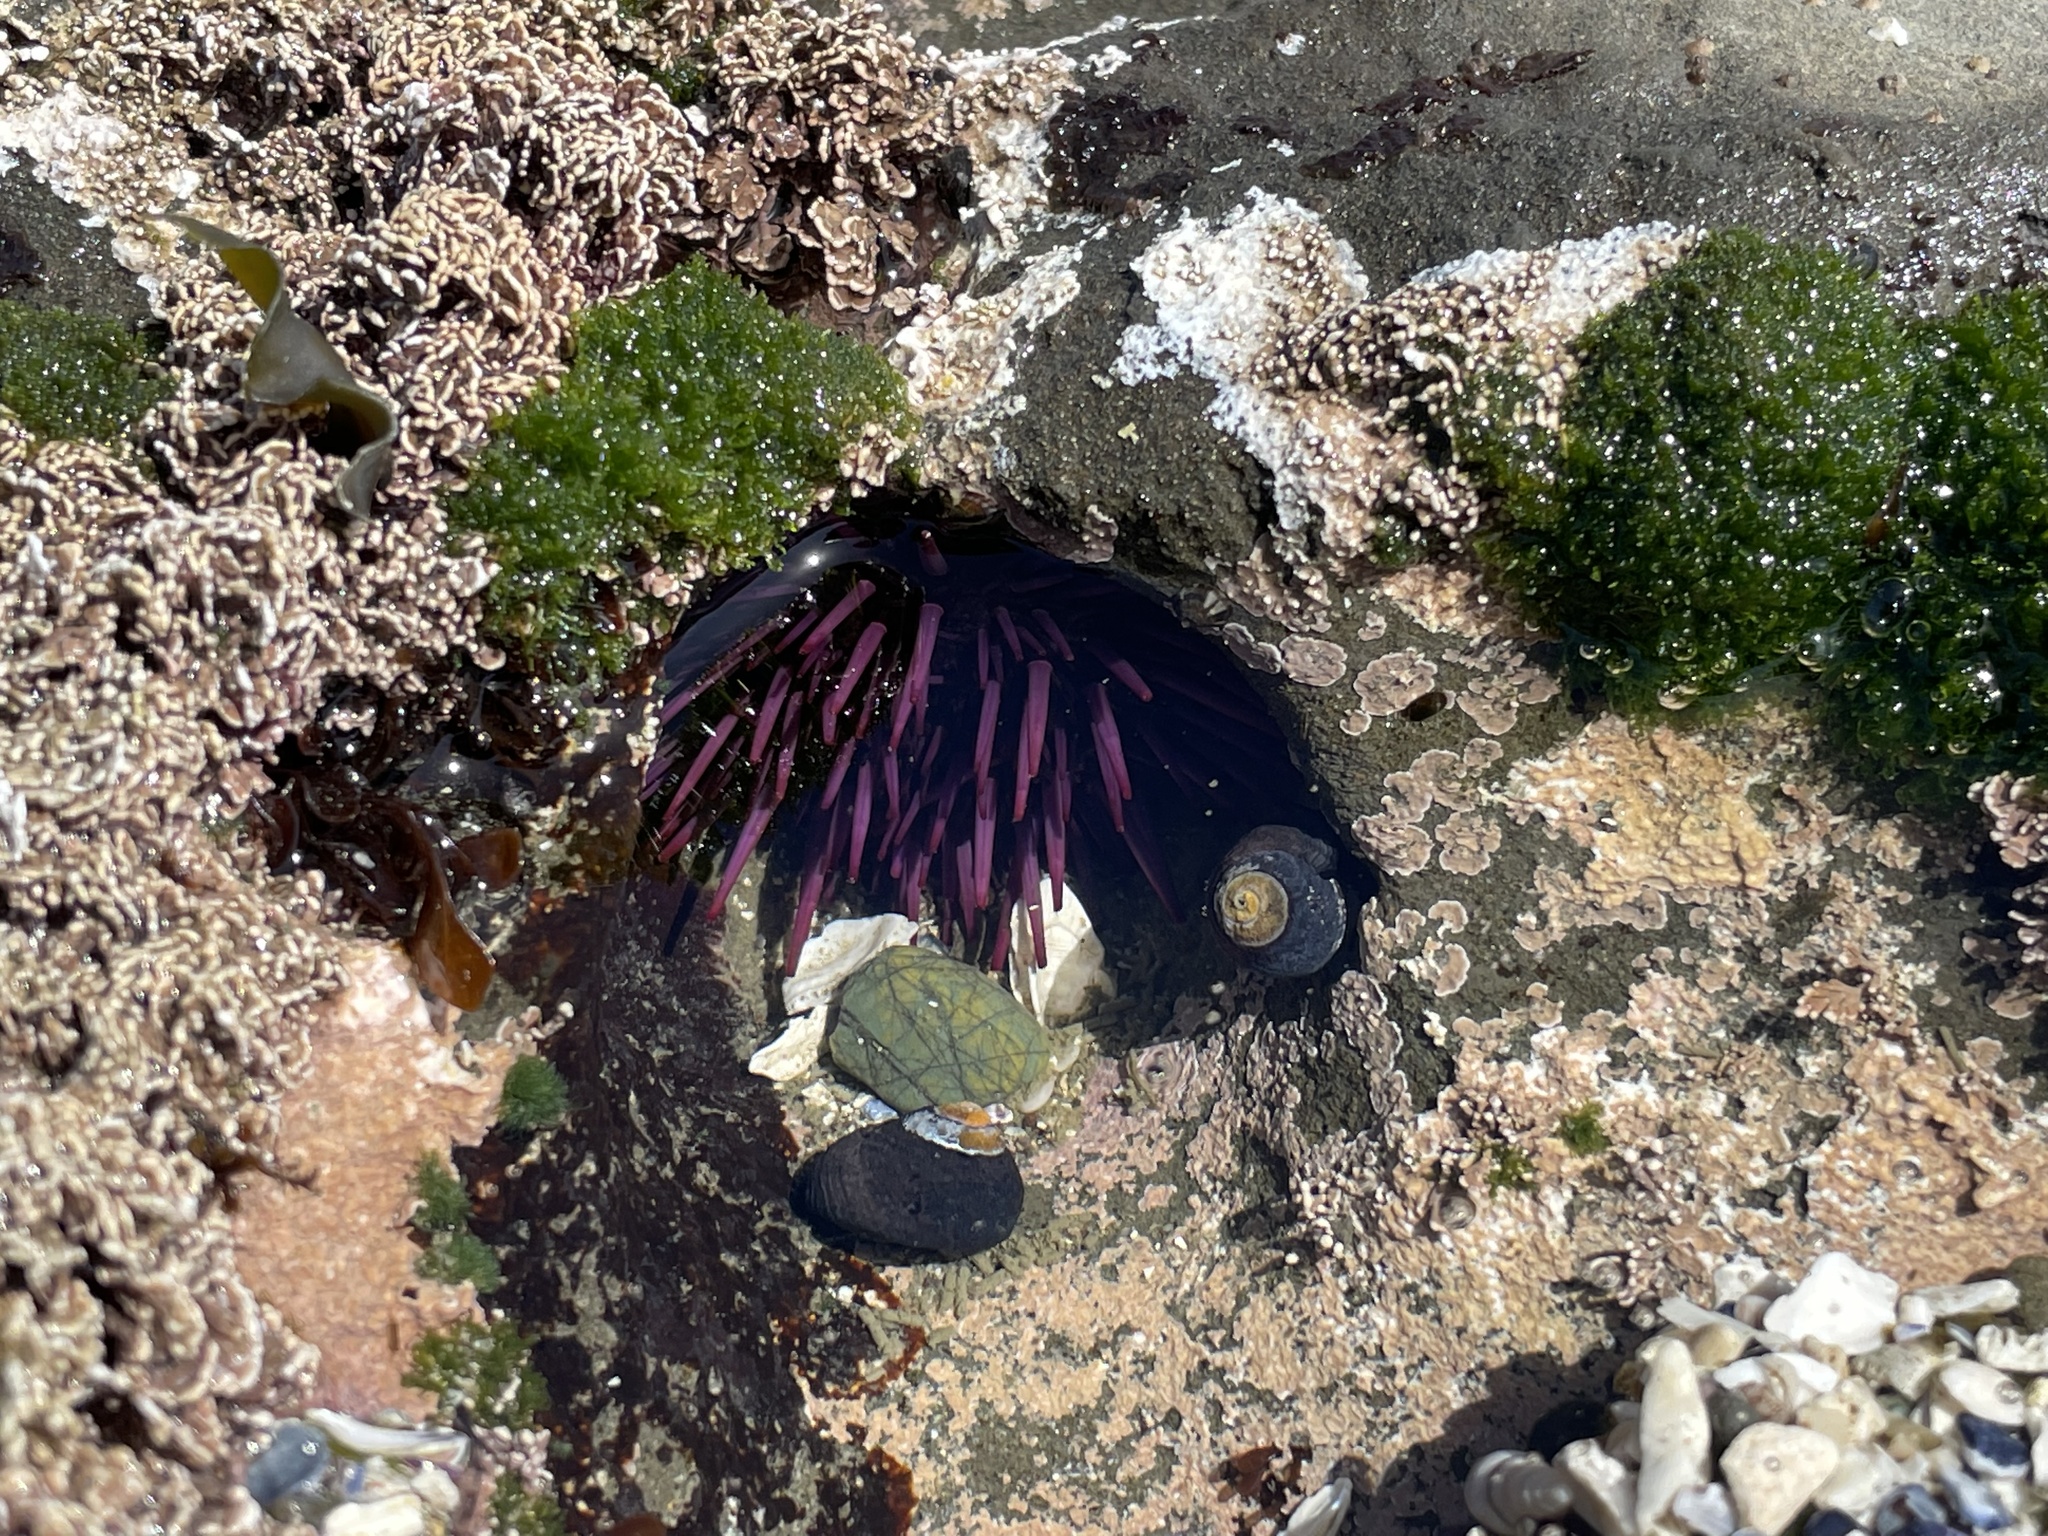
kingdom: Animalia
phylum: Echinodermata
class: Echinoidea
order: Camarodonta
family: Strongylocentrotidae
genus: Strongylocentrotus
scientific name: Strongylocentrotus purpuratus
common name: Purple sea urchin
